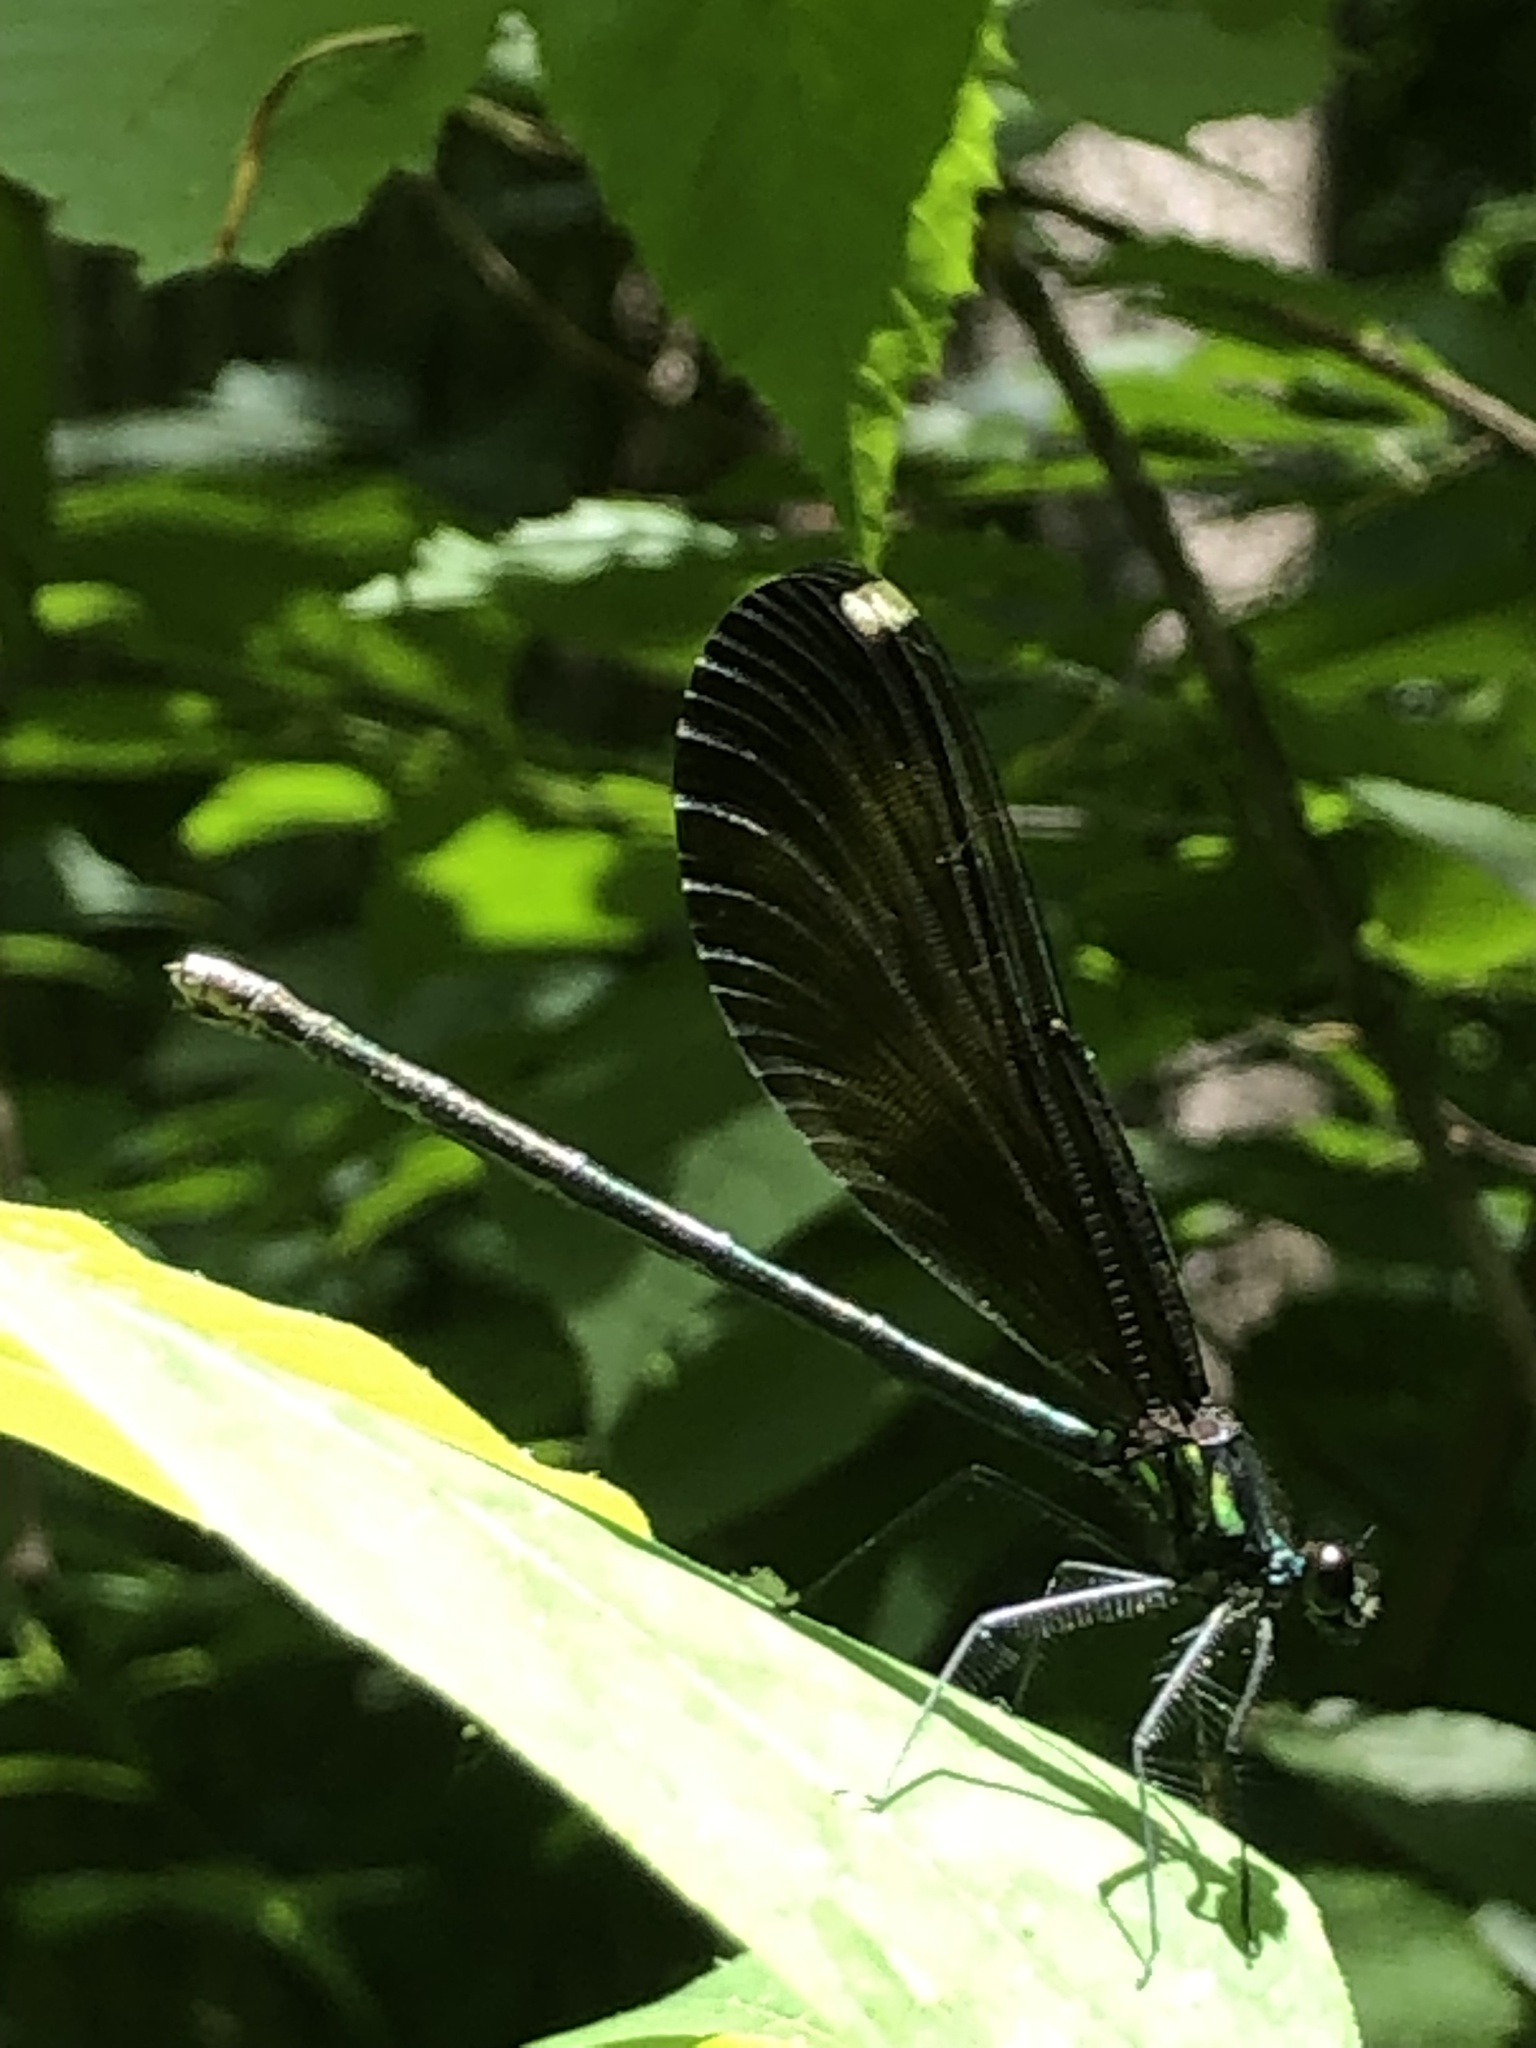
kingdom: Animalia
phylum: Arthropoda
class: Insecta
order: Odonata
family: Calopterygidae
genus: Calopteryx
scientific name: Calopteryx maculata
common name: Ebony jewelwing
